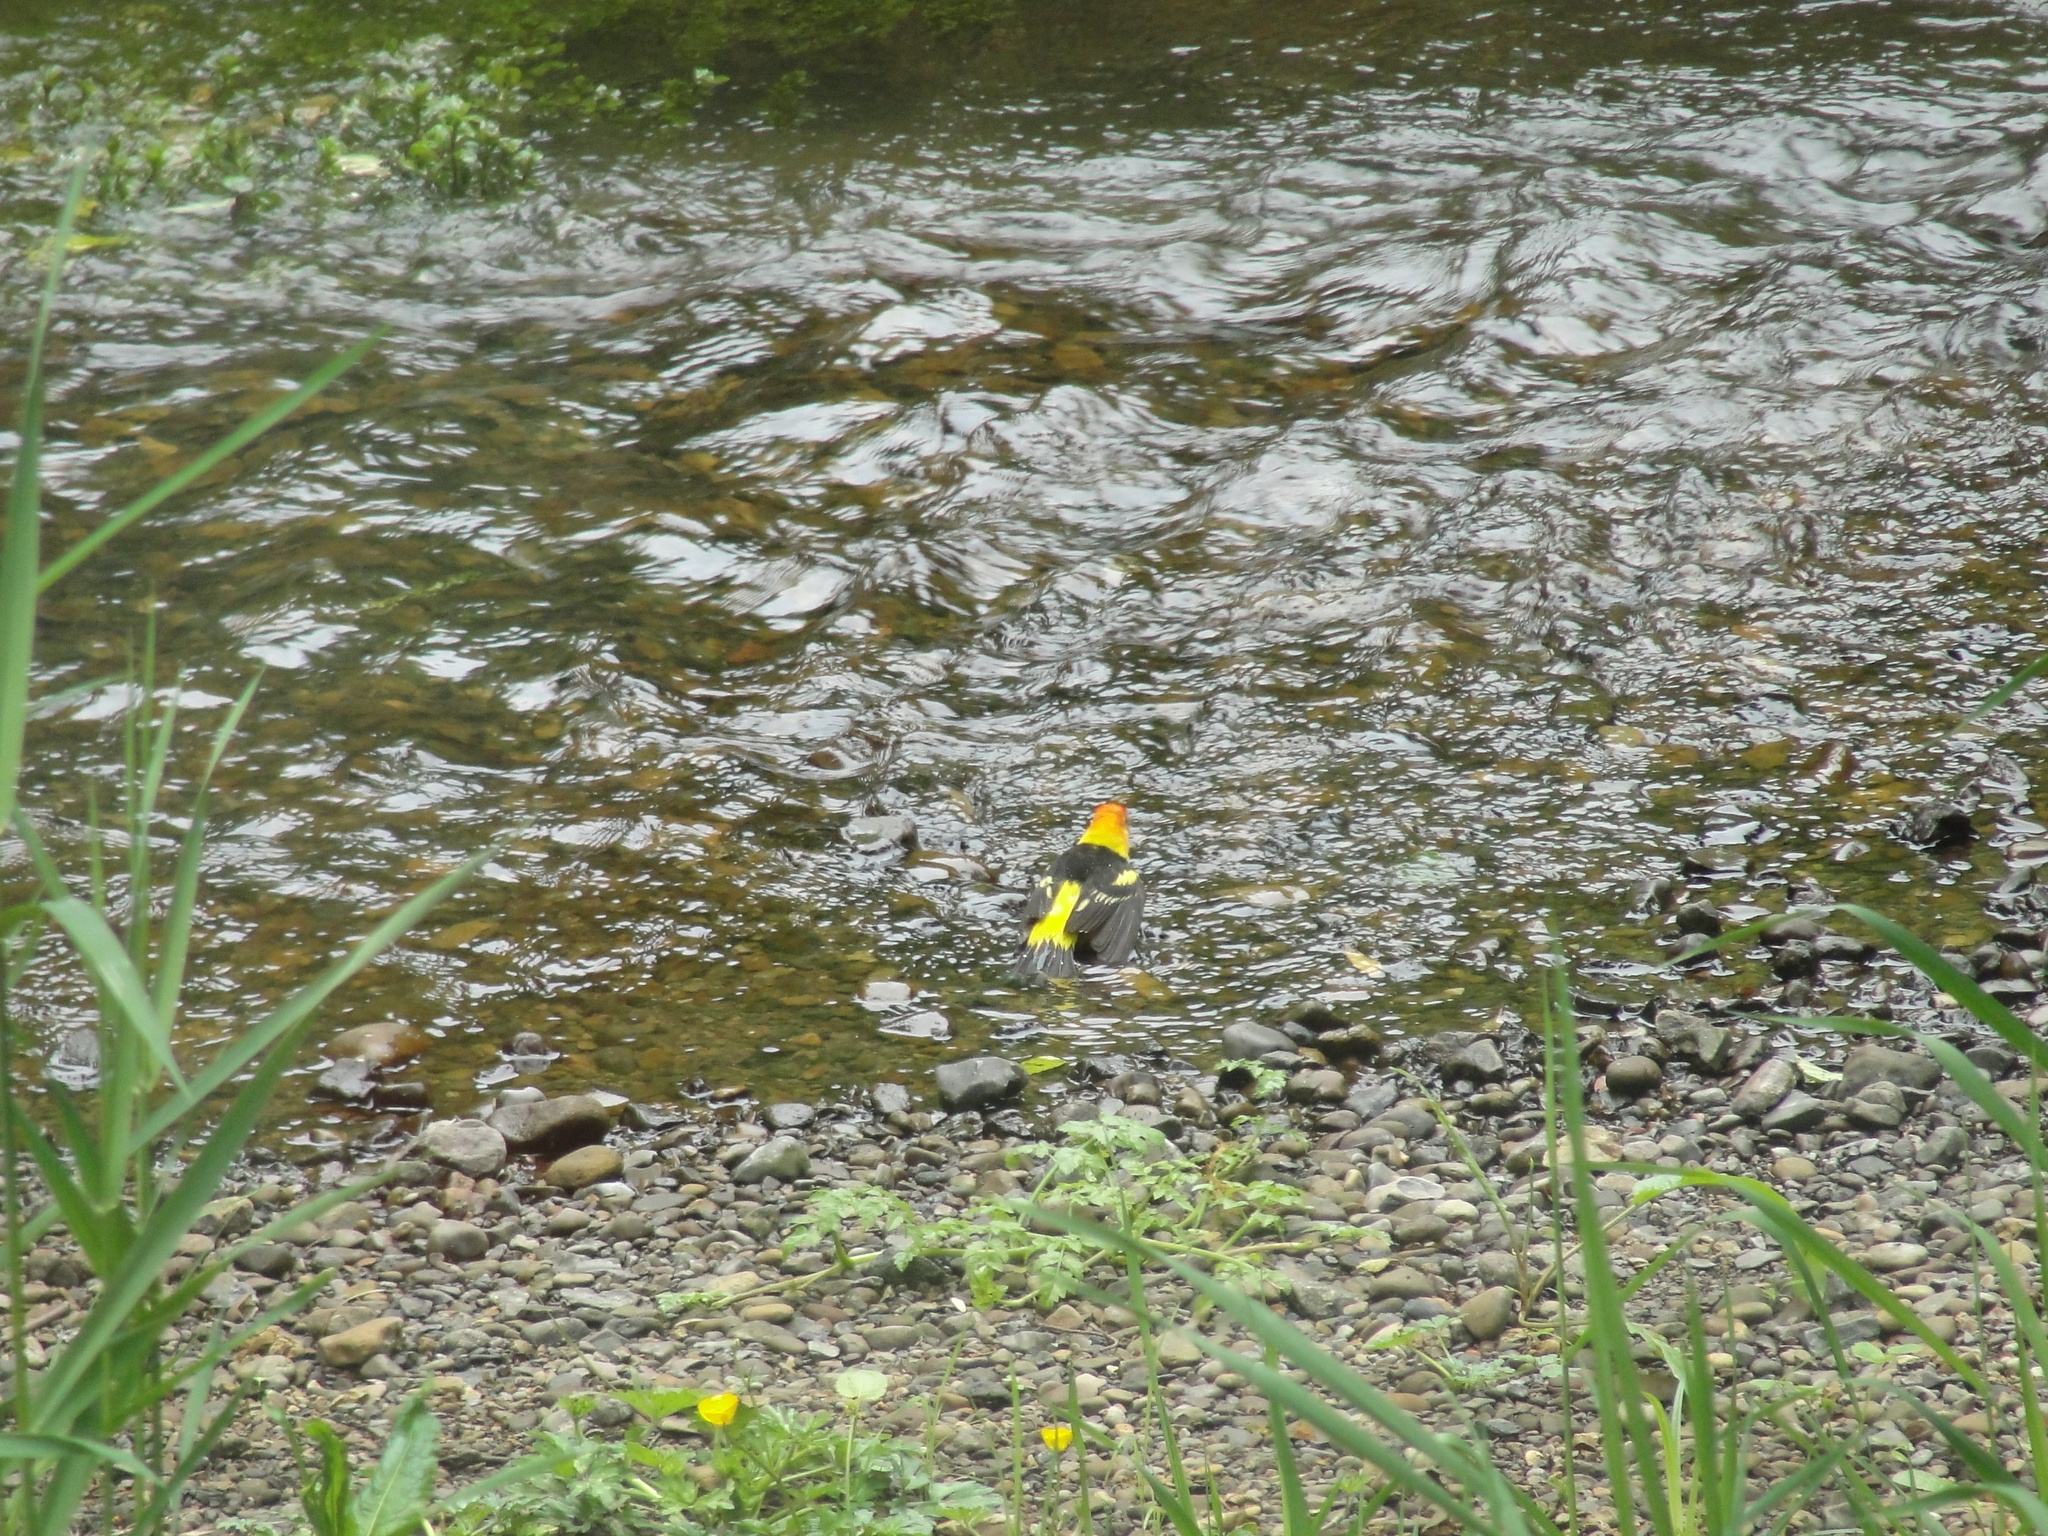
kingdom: Animalia
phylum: Chordata
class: Aves
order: Passeriformes
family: Cardinalidae
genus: Piranga
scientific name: Piranga ludoviciana
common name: Western tanager
